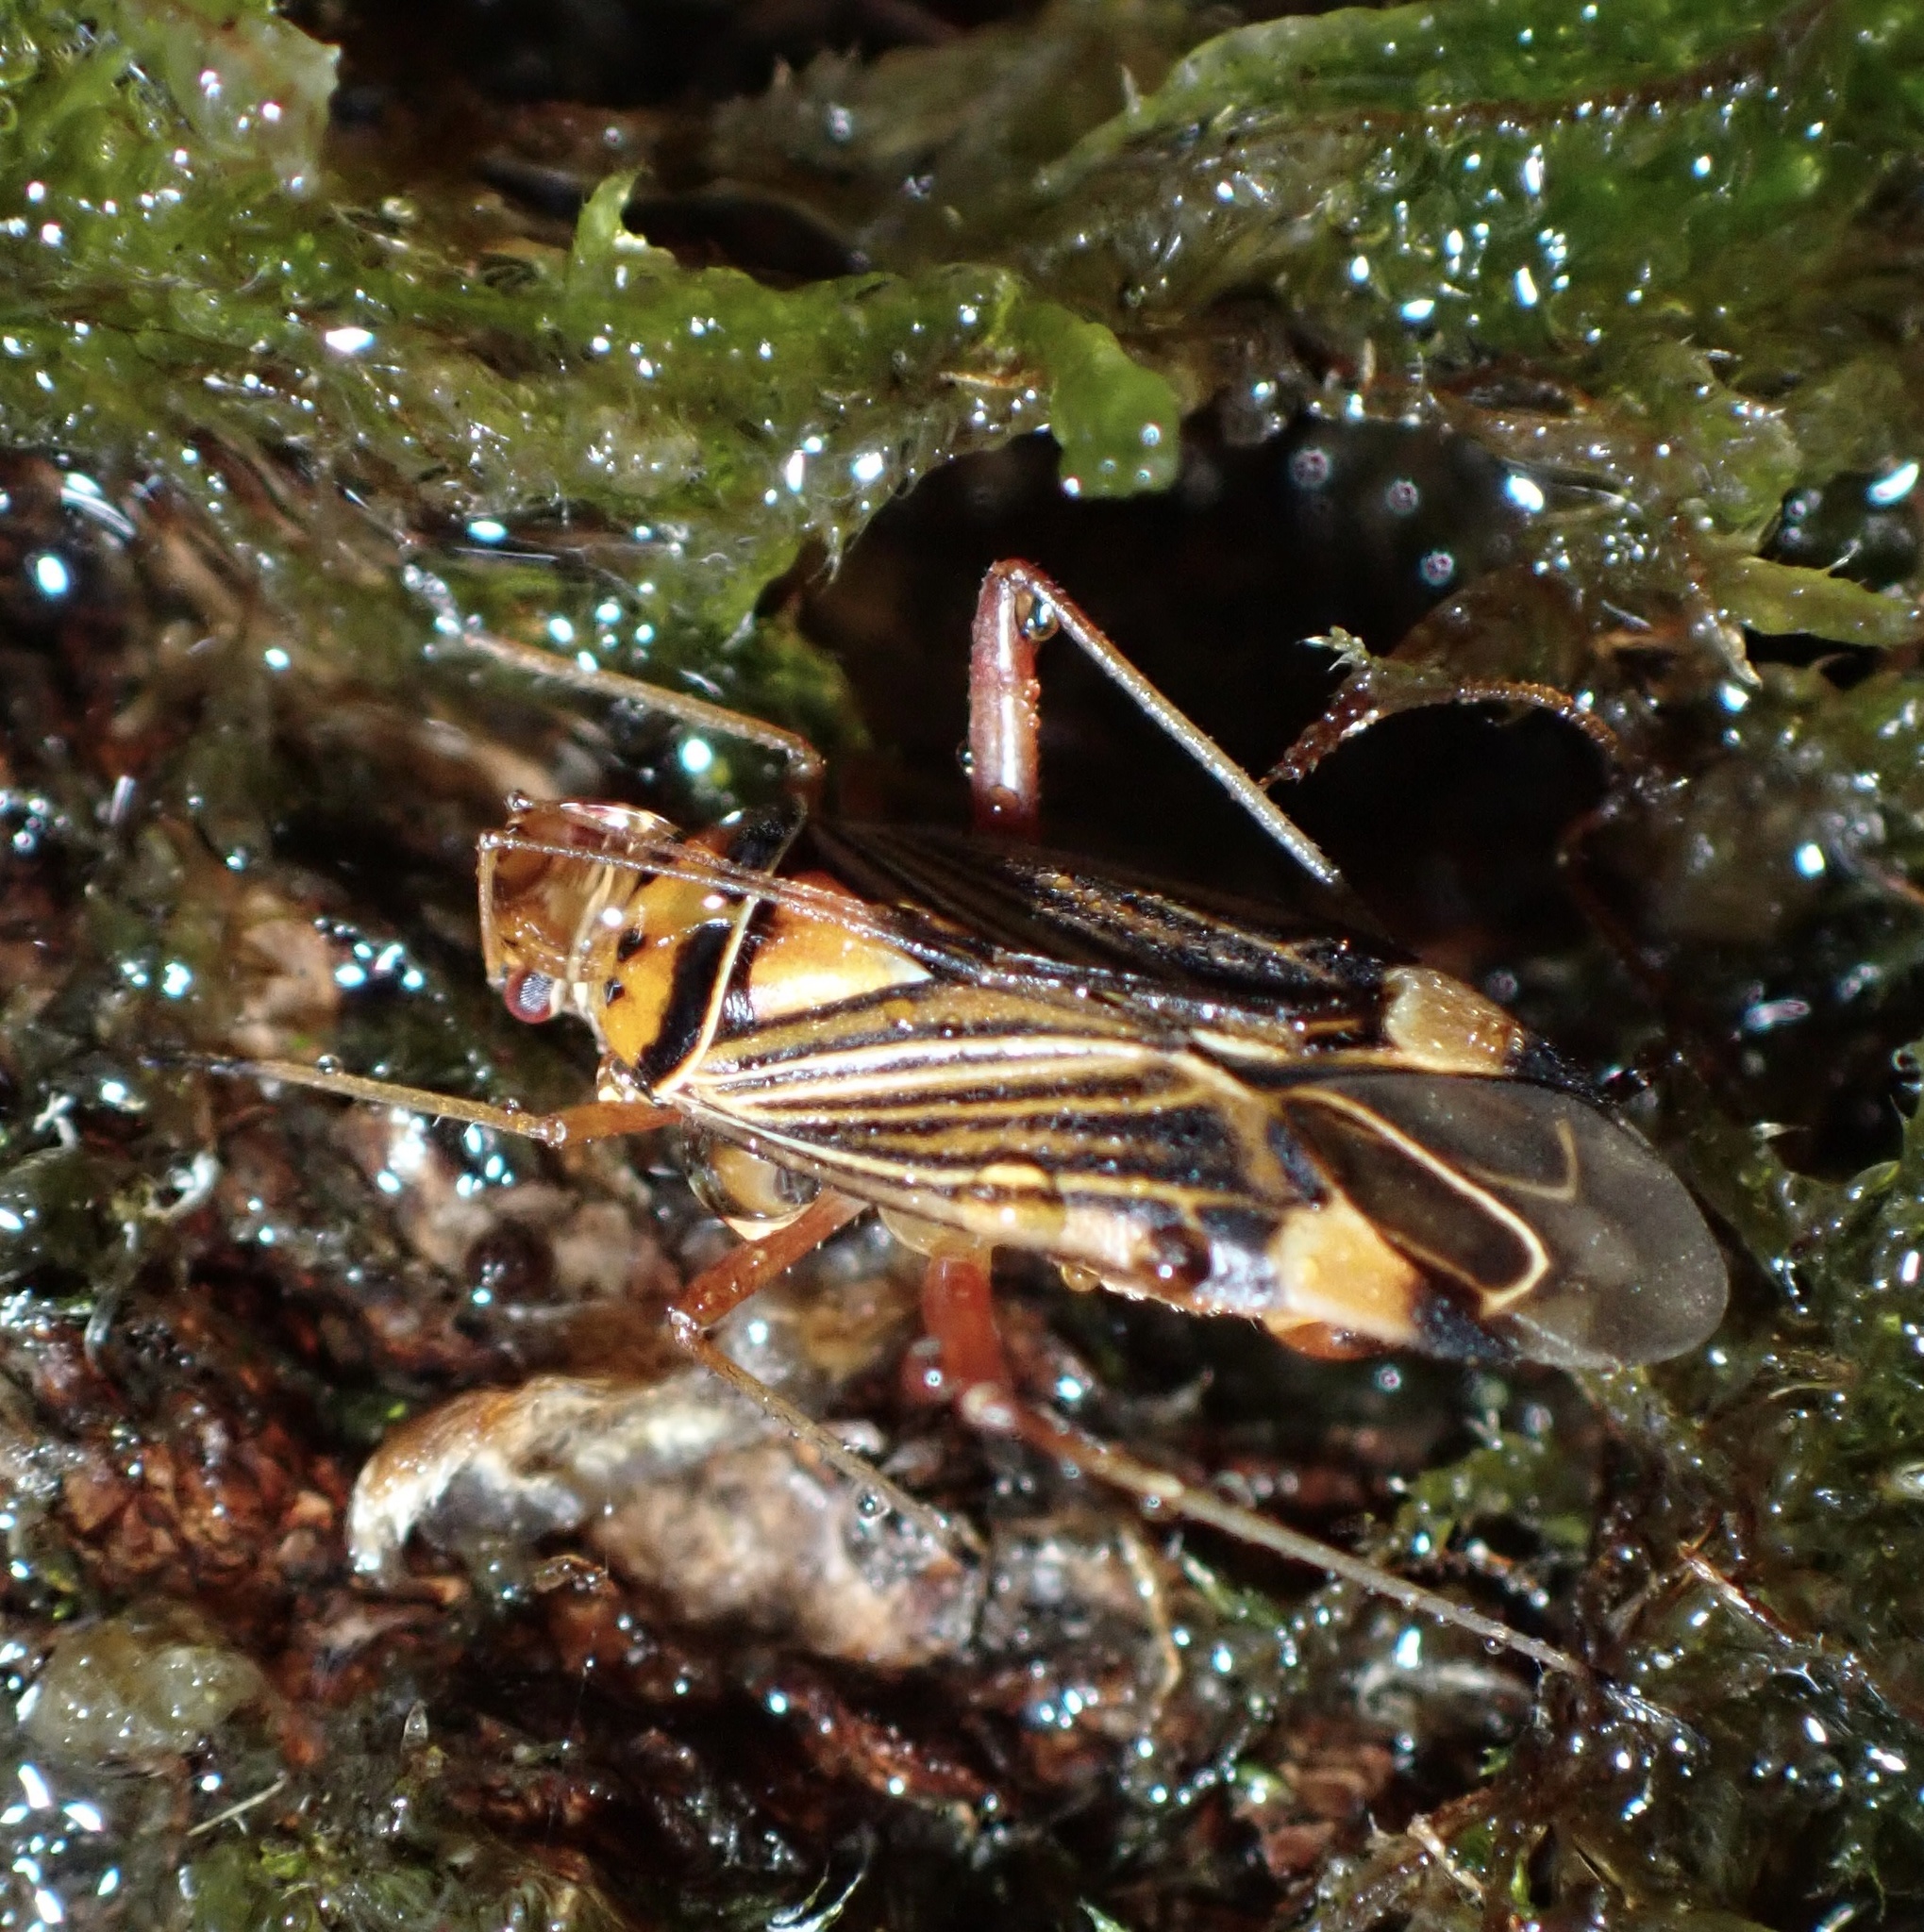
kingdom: Animalia
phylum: Arthropoda
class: Insecta
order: Hemiptera
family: Miridae
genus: Rhabdomiris
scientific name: Rhabdomiris striatellus
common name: Plant bug
